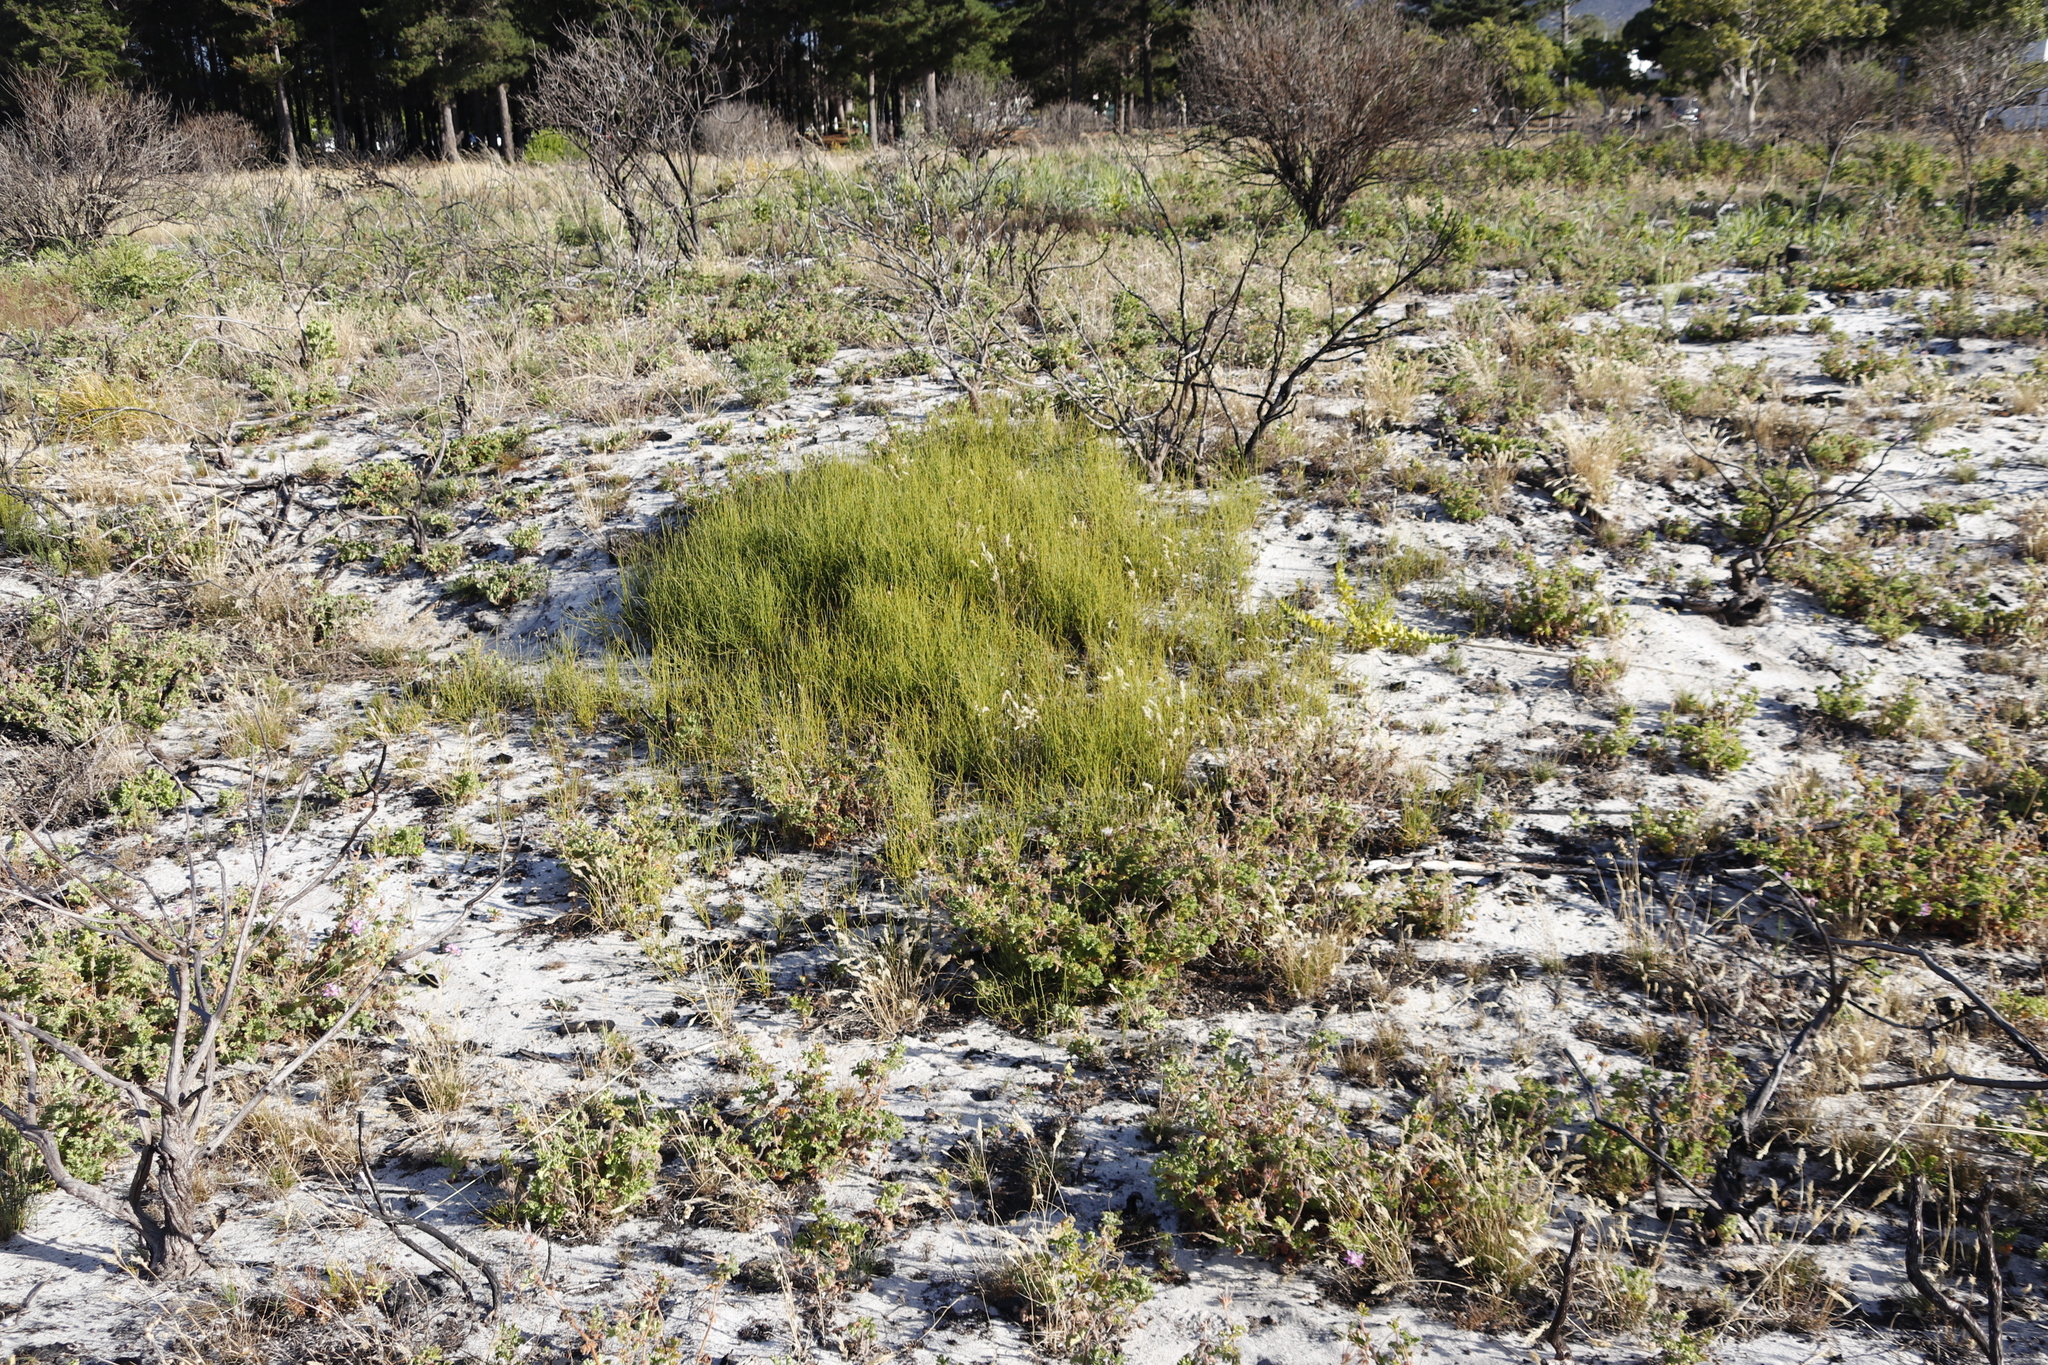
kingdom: Plantae
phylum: Tracheophyta
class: Liliopsida
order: Poales
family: Restionaceae
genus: Willdenowia
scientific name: Willdenowia sulcata
